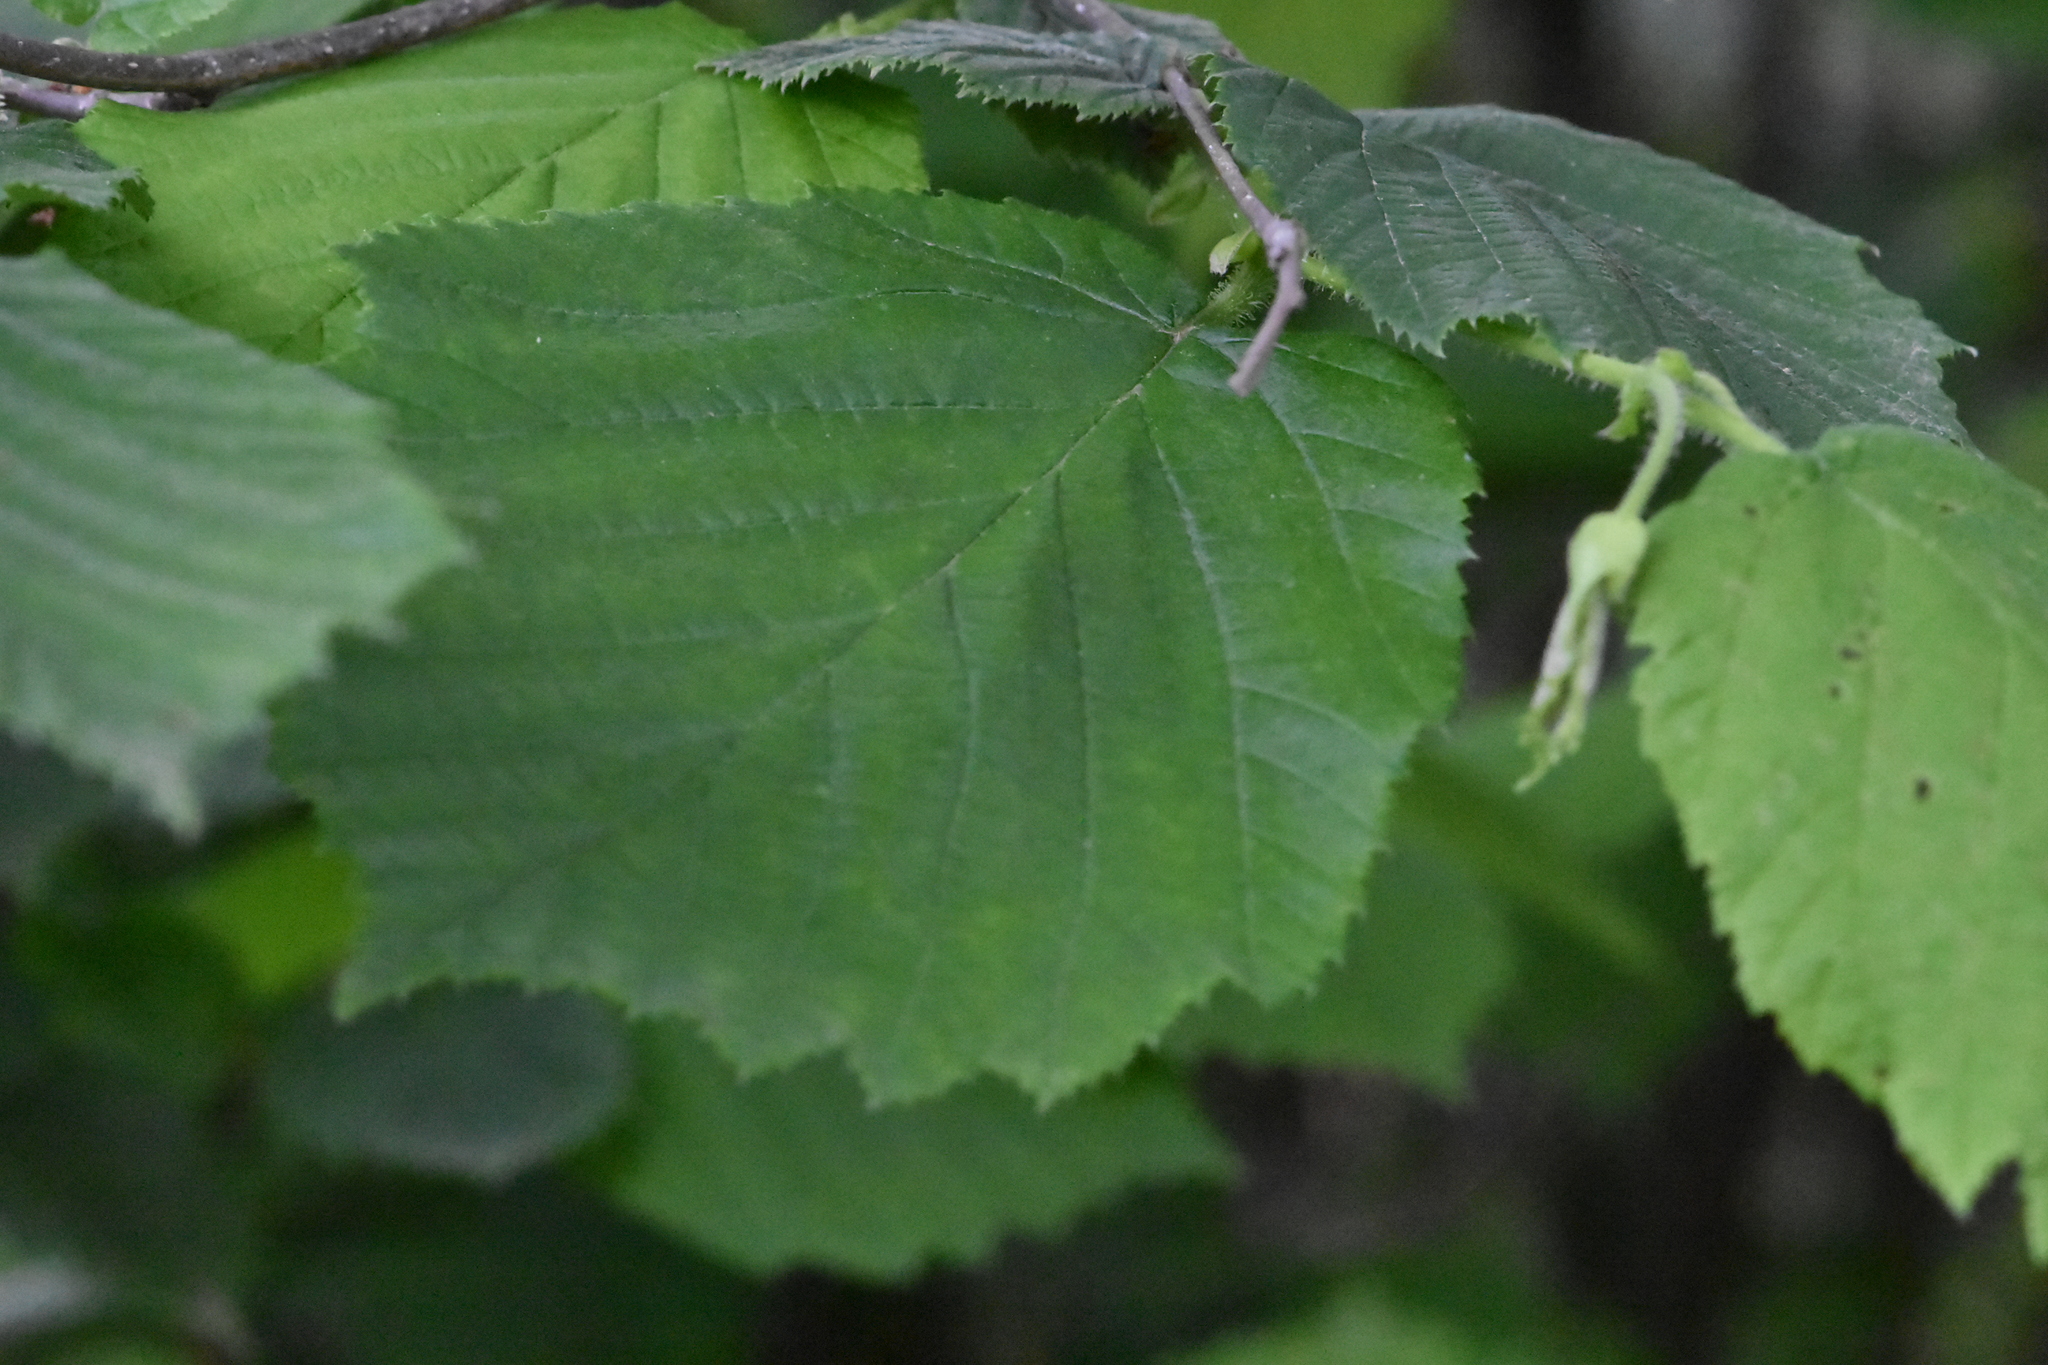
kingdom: Plantae
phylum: Tracheophyta
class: Magnoliopsida
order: Fagales
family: Betulaceae
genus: Corylus
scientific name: Corylus avellana
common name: European hazel
